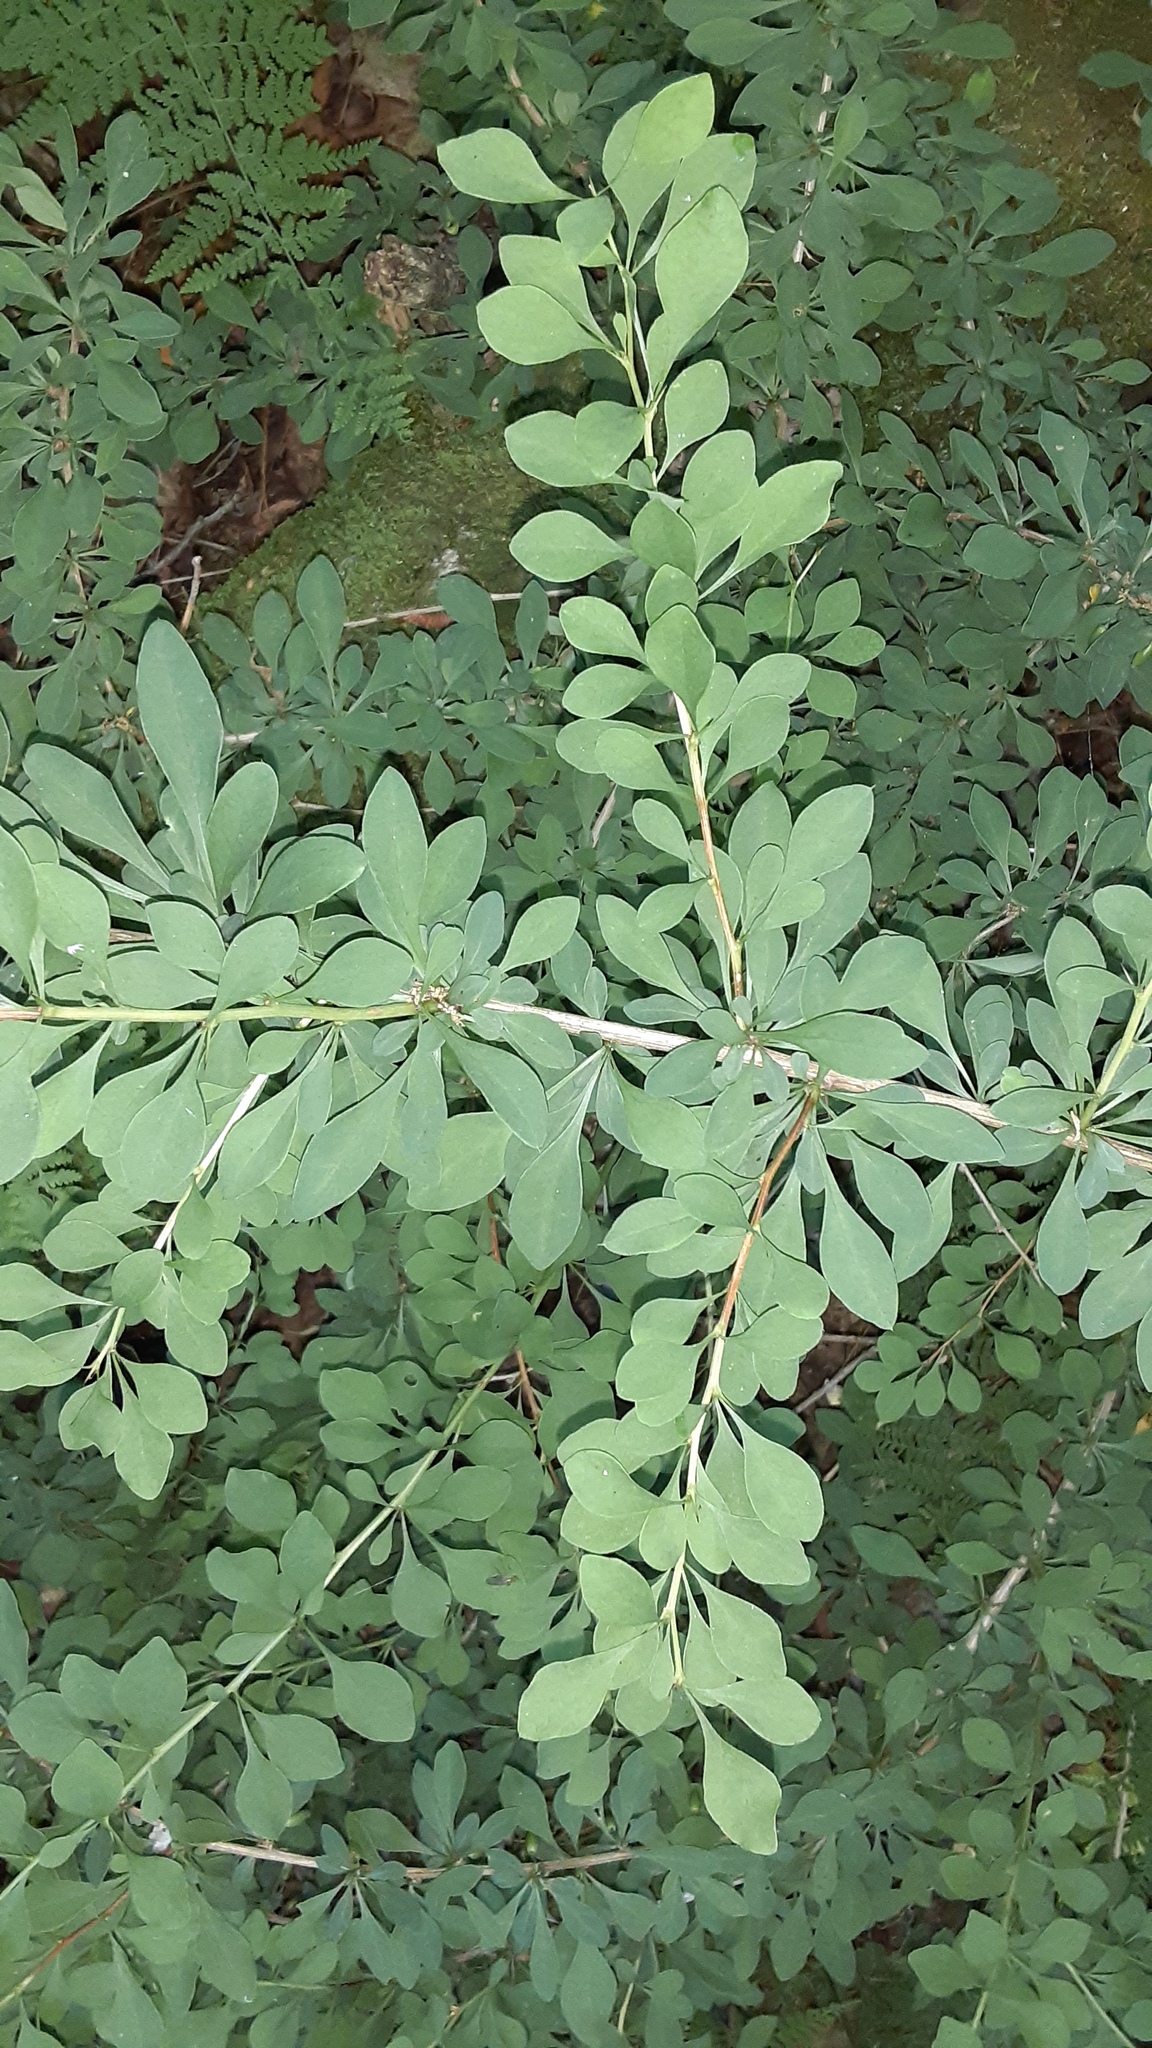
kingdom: Plantae
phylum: Tracheophyta
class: Magnoliopsida
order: Ranunculales
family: Berberidaceae
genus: Berberis
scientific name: Berberis thunbergii
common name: Japanese barberry
